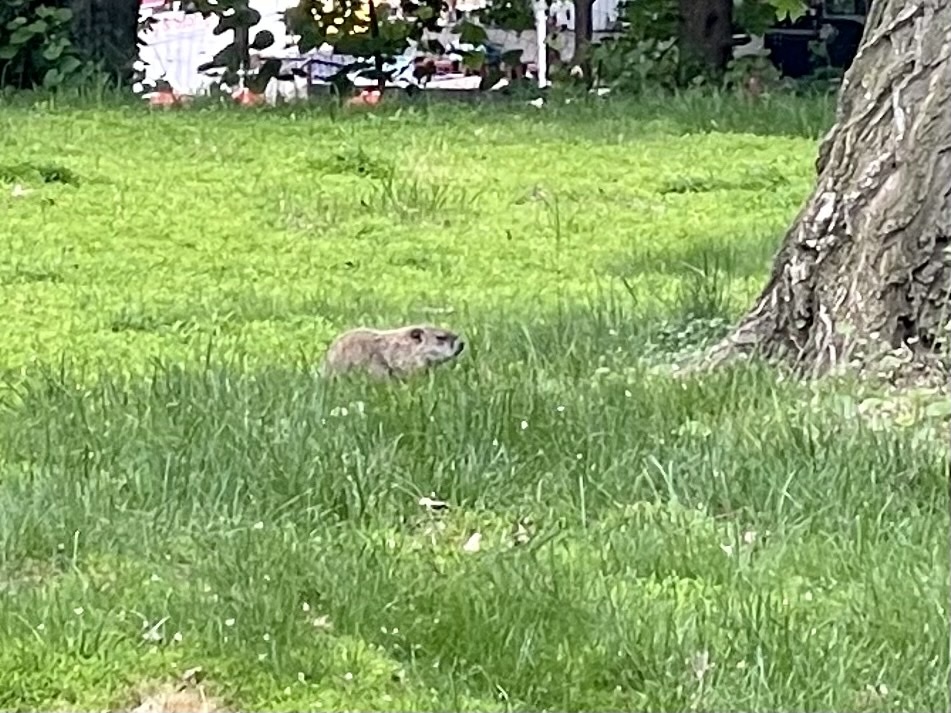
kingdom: Animalia
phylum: Chordata
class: Mammalia
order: Rodentia
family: Sciuridae
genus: Marmota
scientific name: Marmota monax
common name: Groundhog
